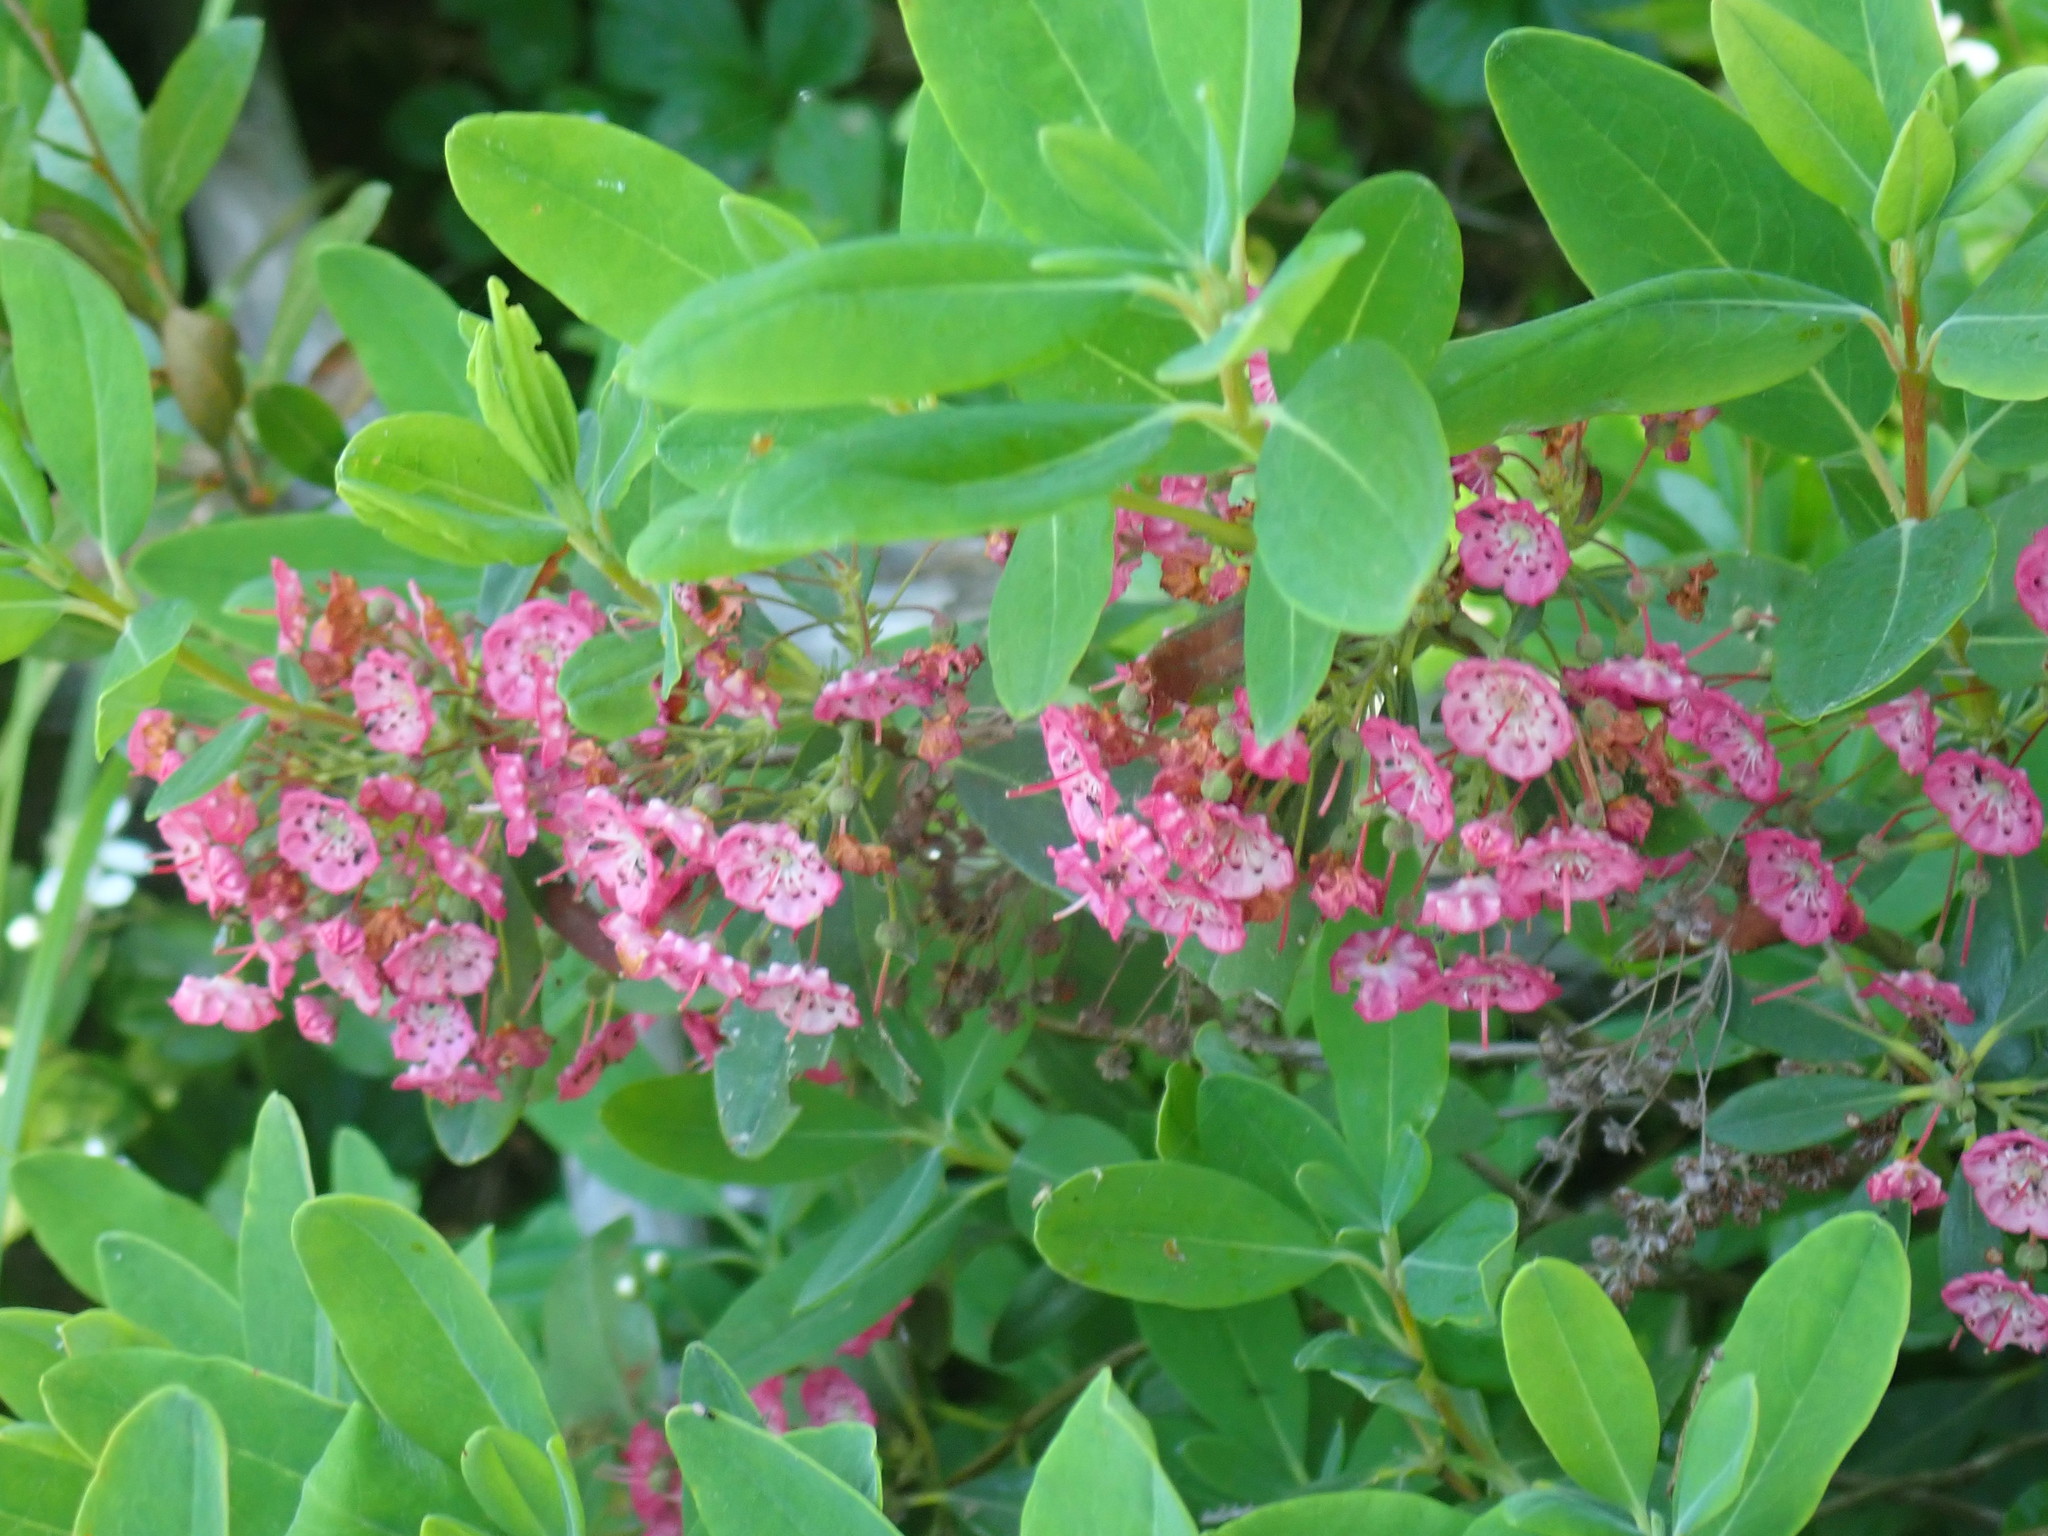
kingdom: Plantae
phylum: Tracheophyta
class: Magnoliopsida
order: Ericales
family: Ericaceae
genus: Kalmia
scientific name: Kalmia angustifolia
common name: Sheep-laurel
